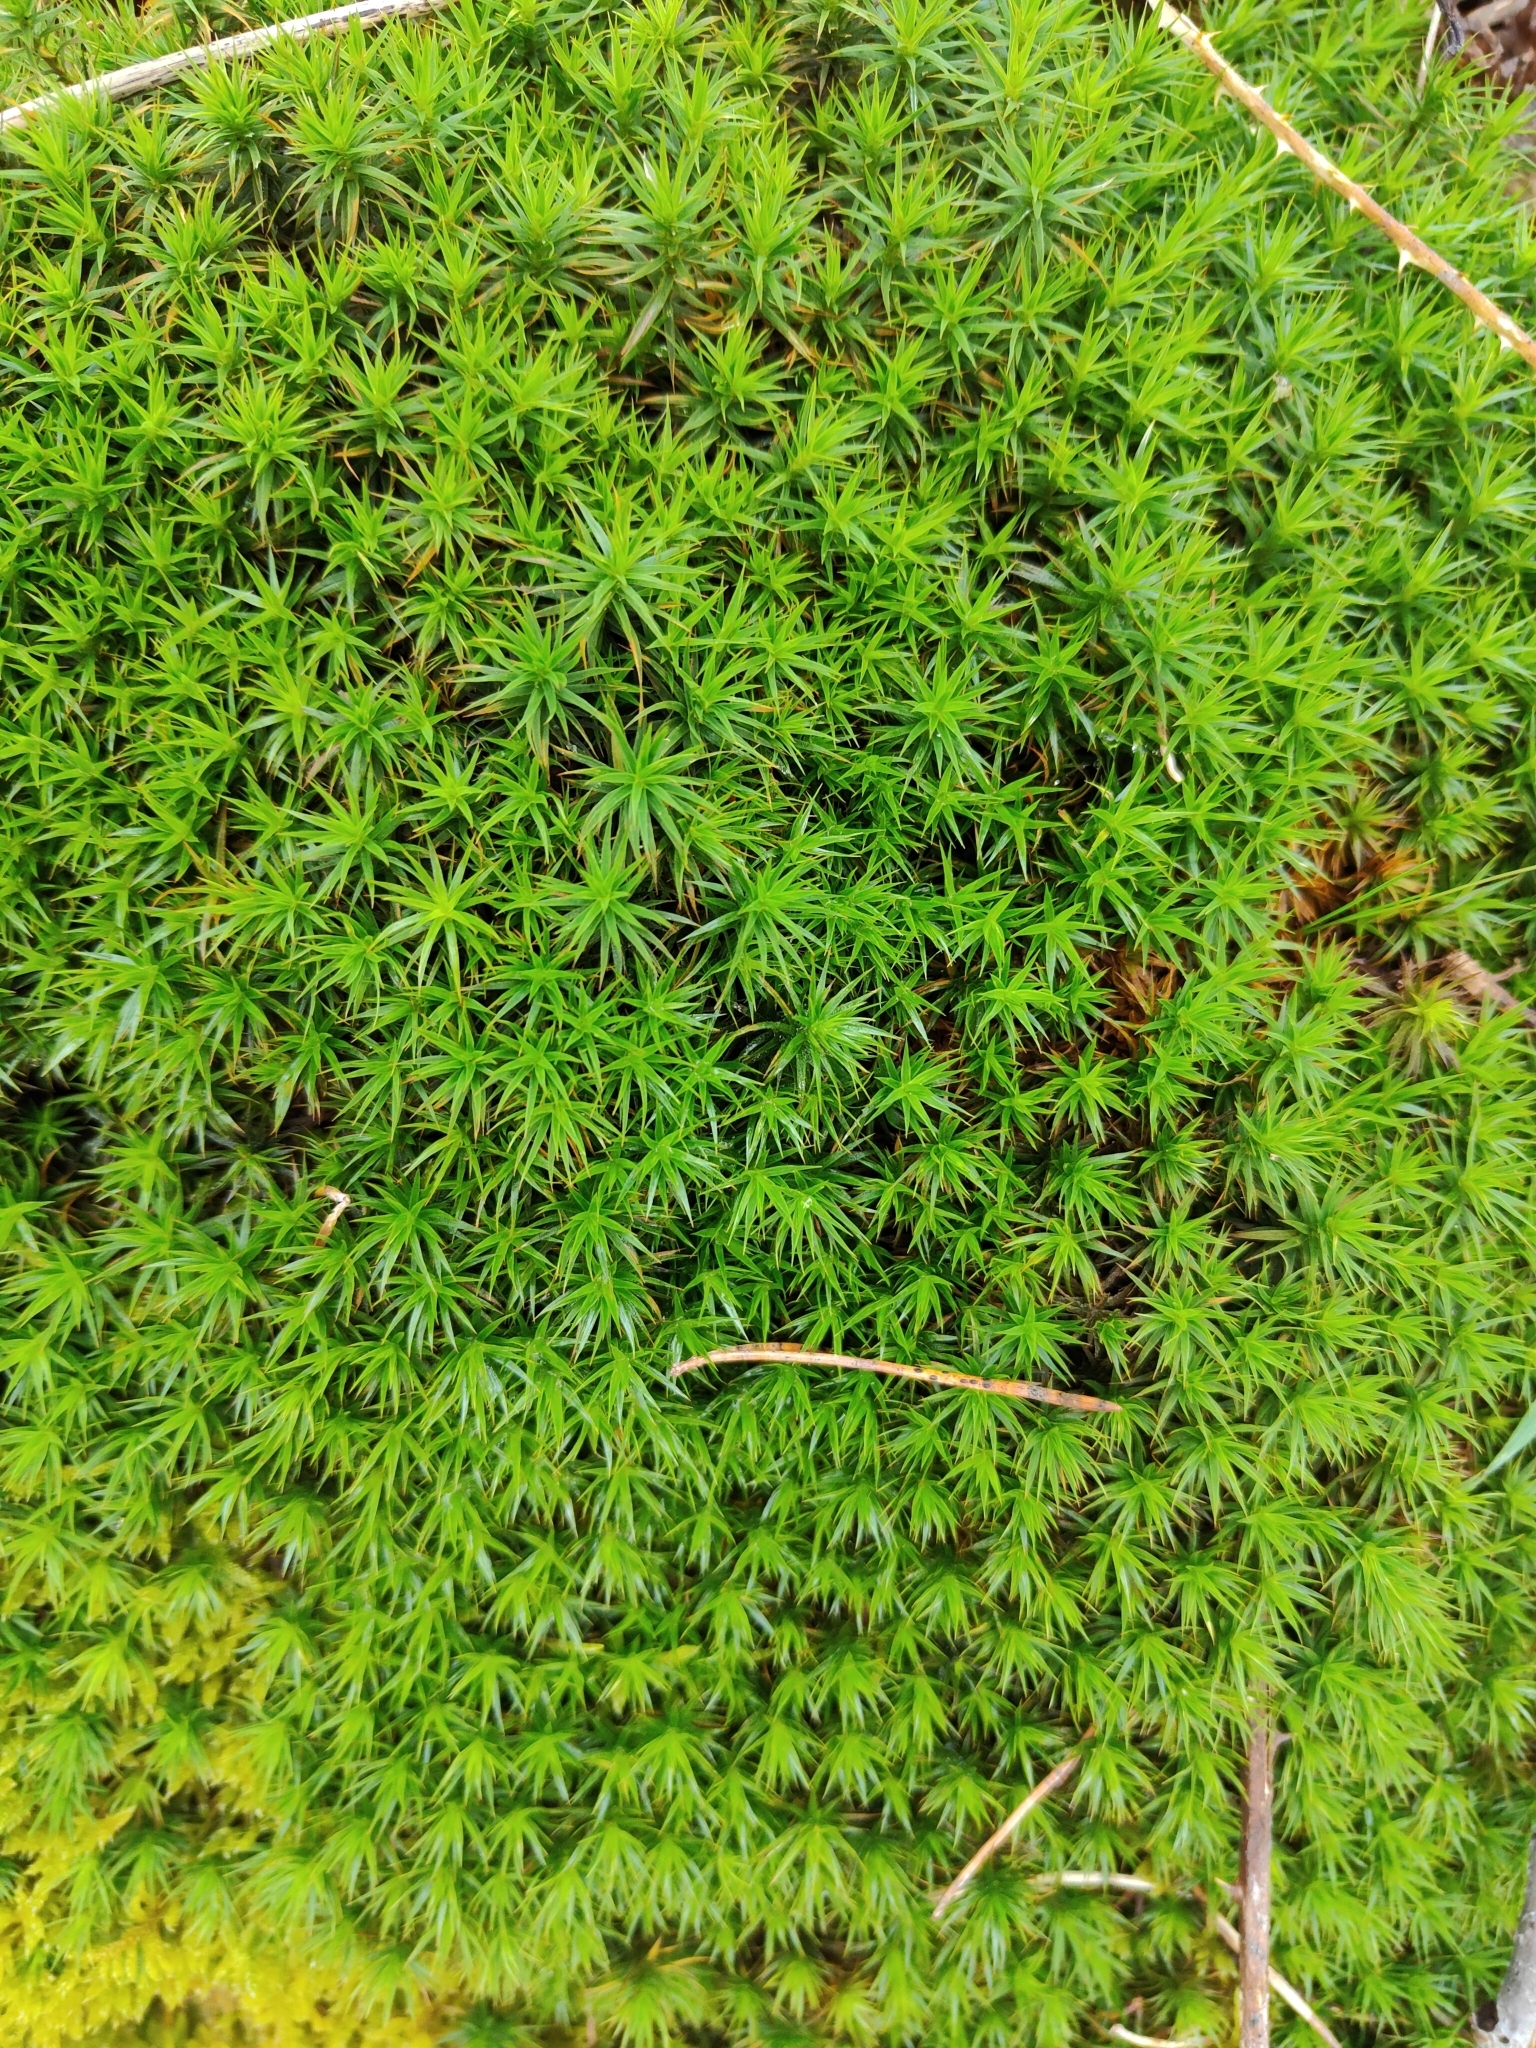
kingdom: Plantae
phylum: Bryophyta
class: Polytrichopsida
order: Polytrichales
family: Polytrichaceae
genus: Polytrichum
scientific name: Polytrichum formosum
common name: Bank haircap moss
